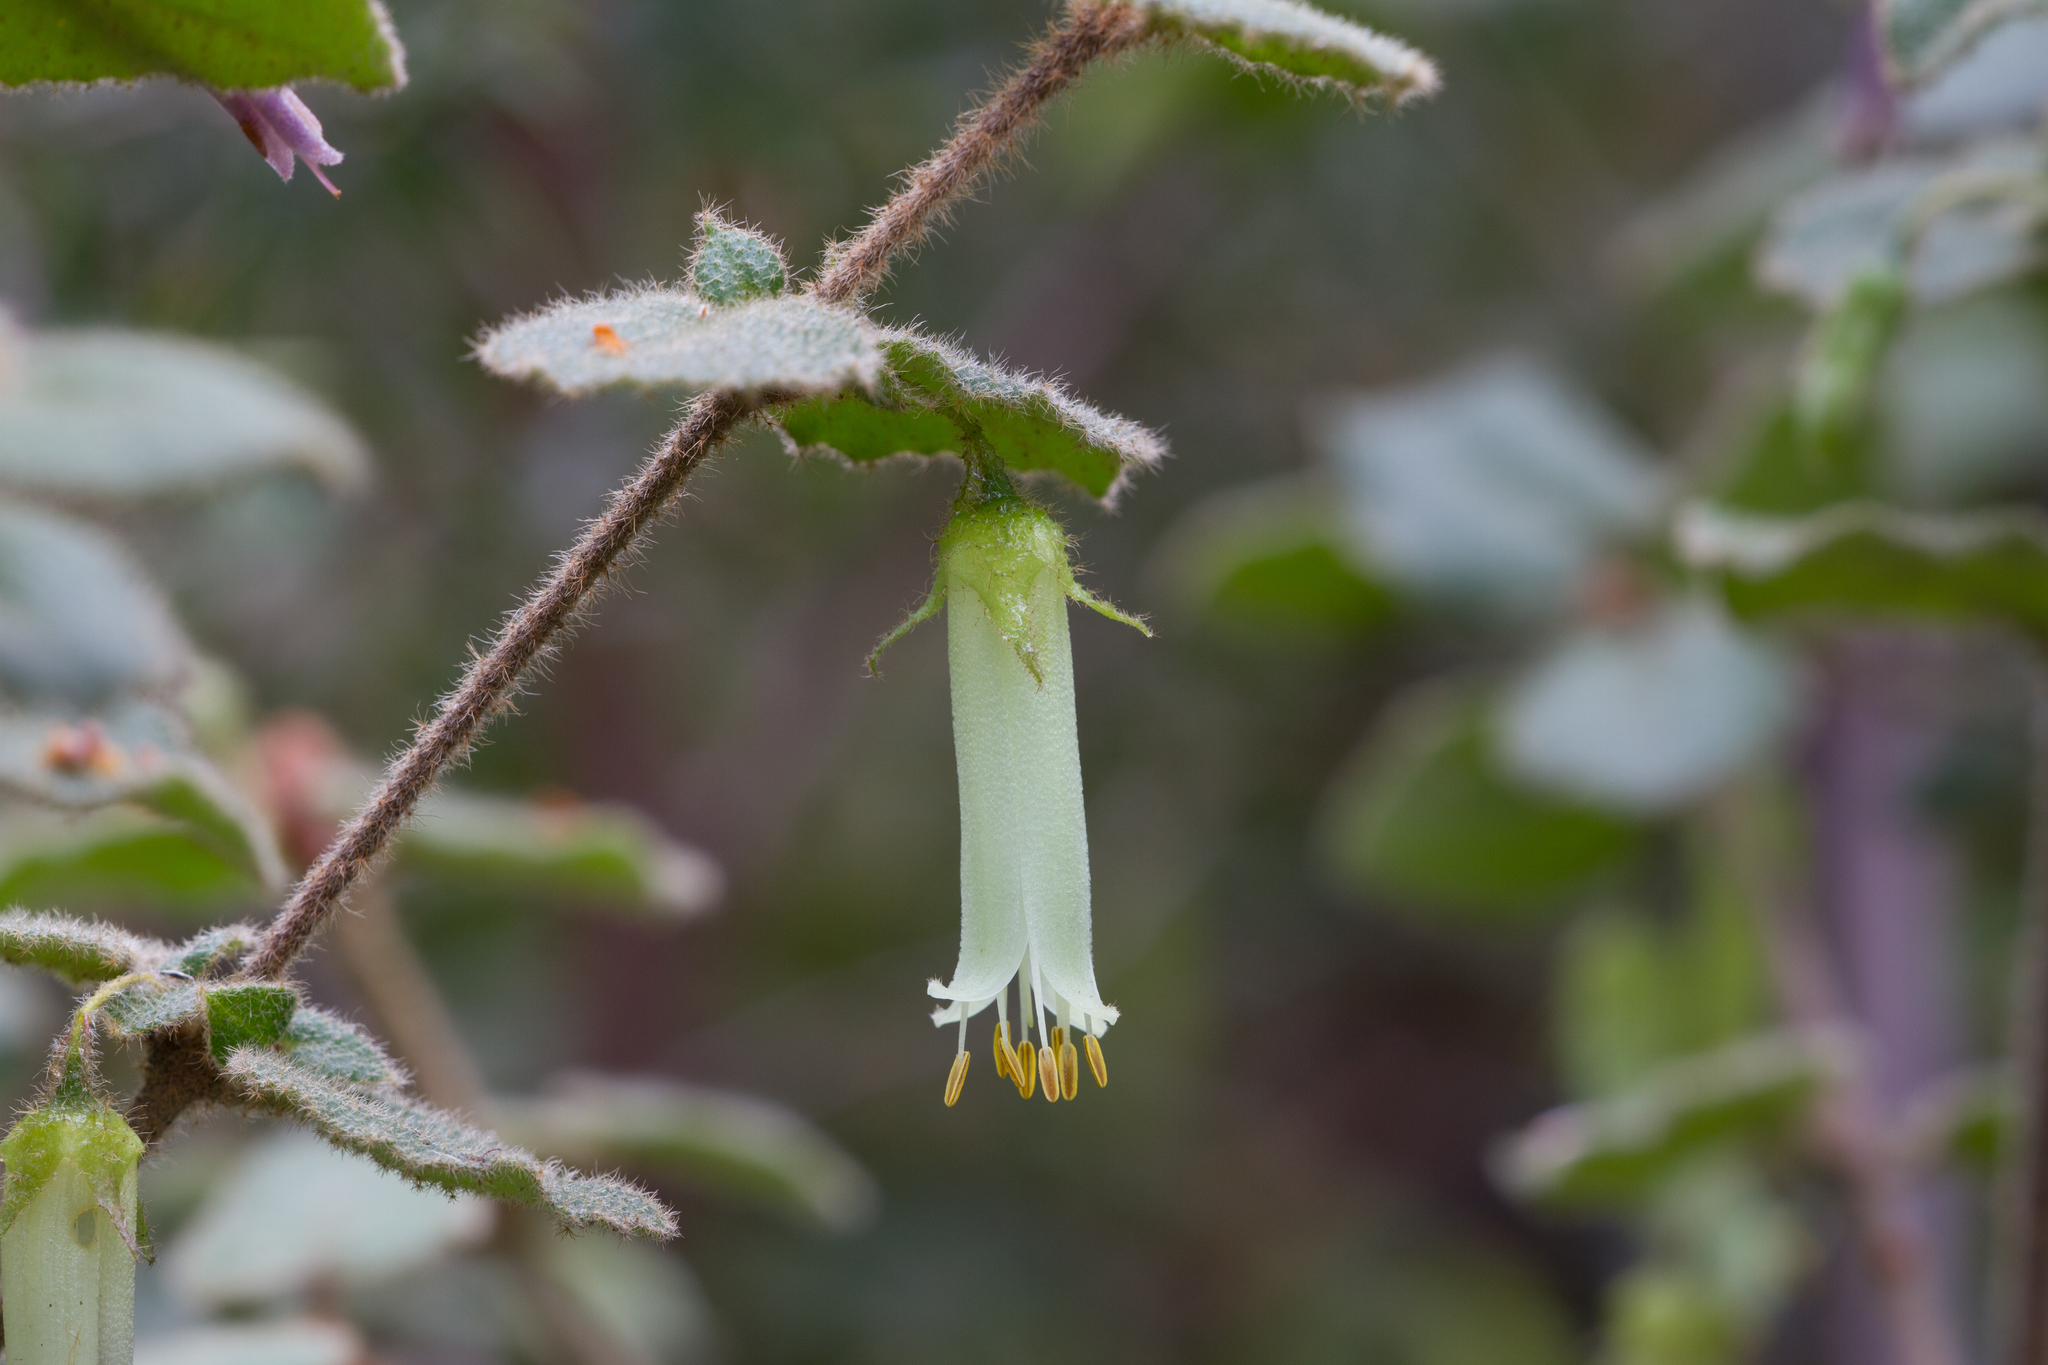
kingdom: Plantae
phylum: Tracheophyta
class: Magnoliopsida
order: Sapindales
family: Rutaceae
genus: Correa
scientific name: Correa aemula
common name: Hairy correa
